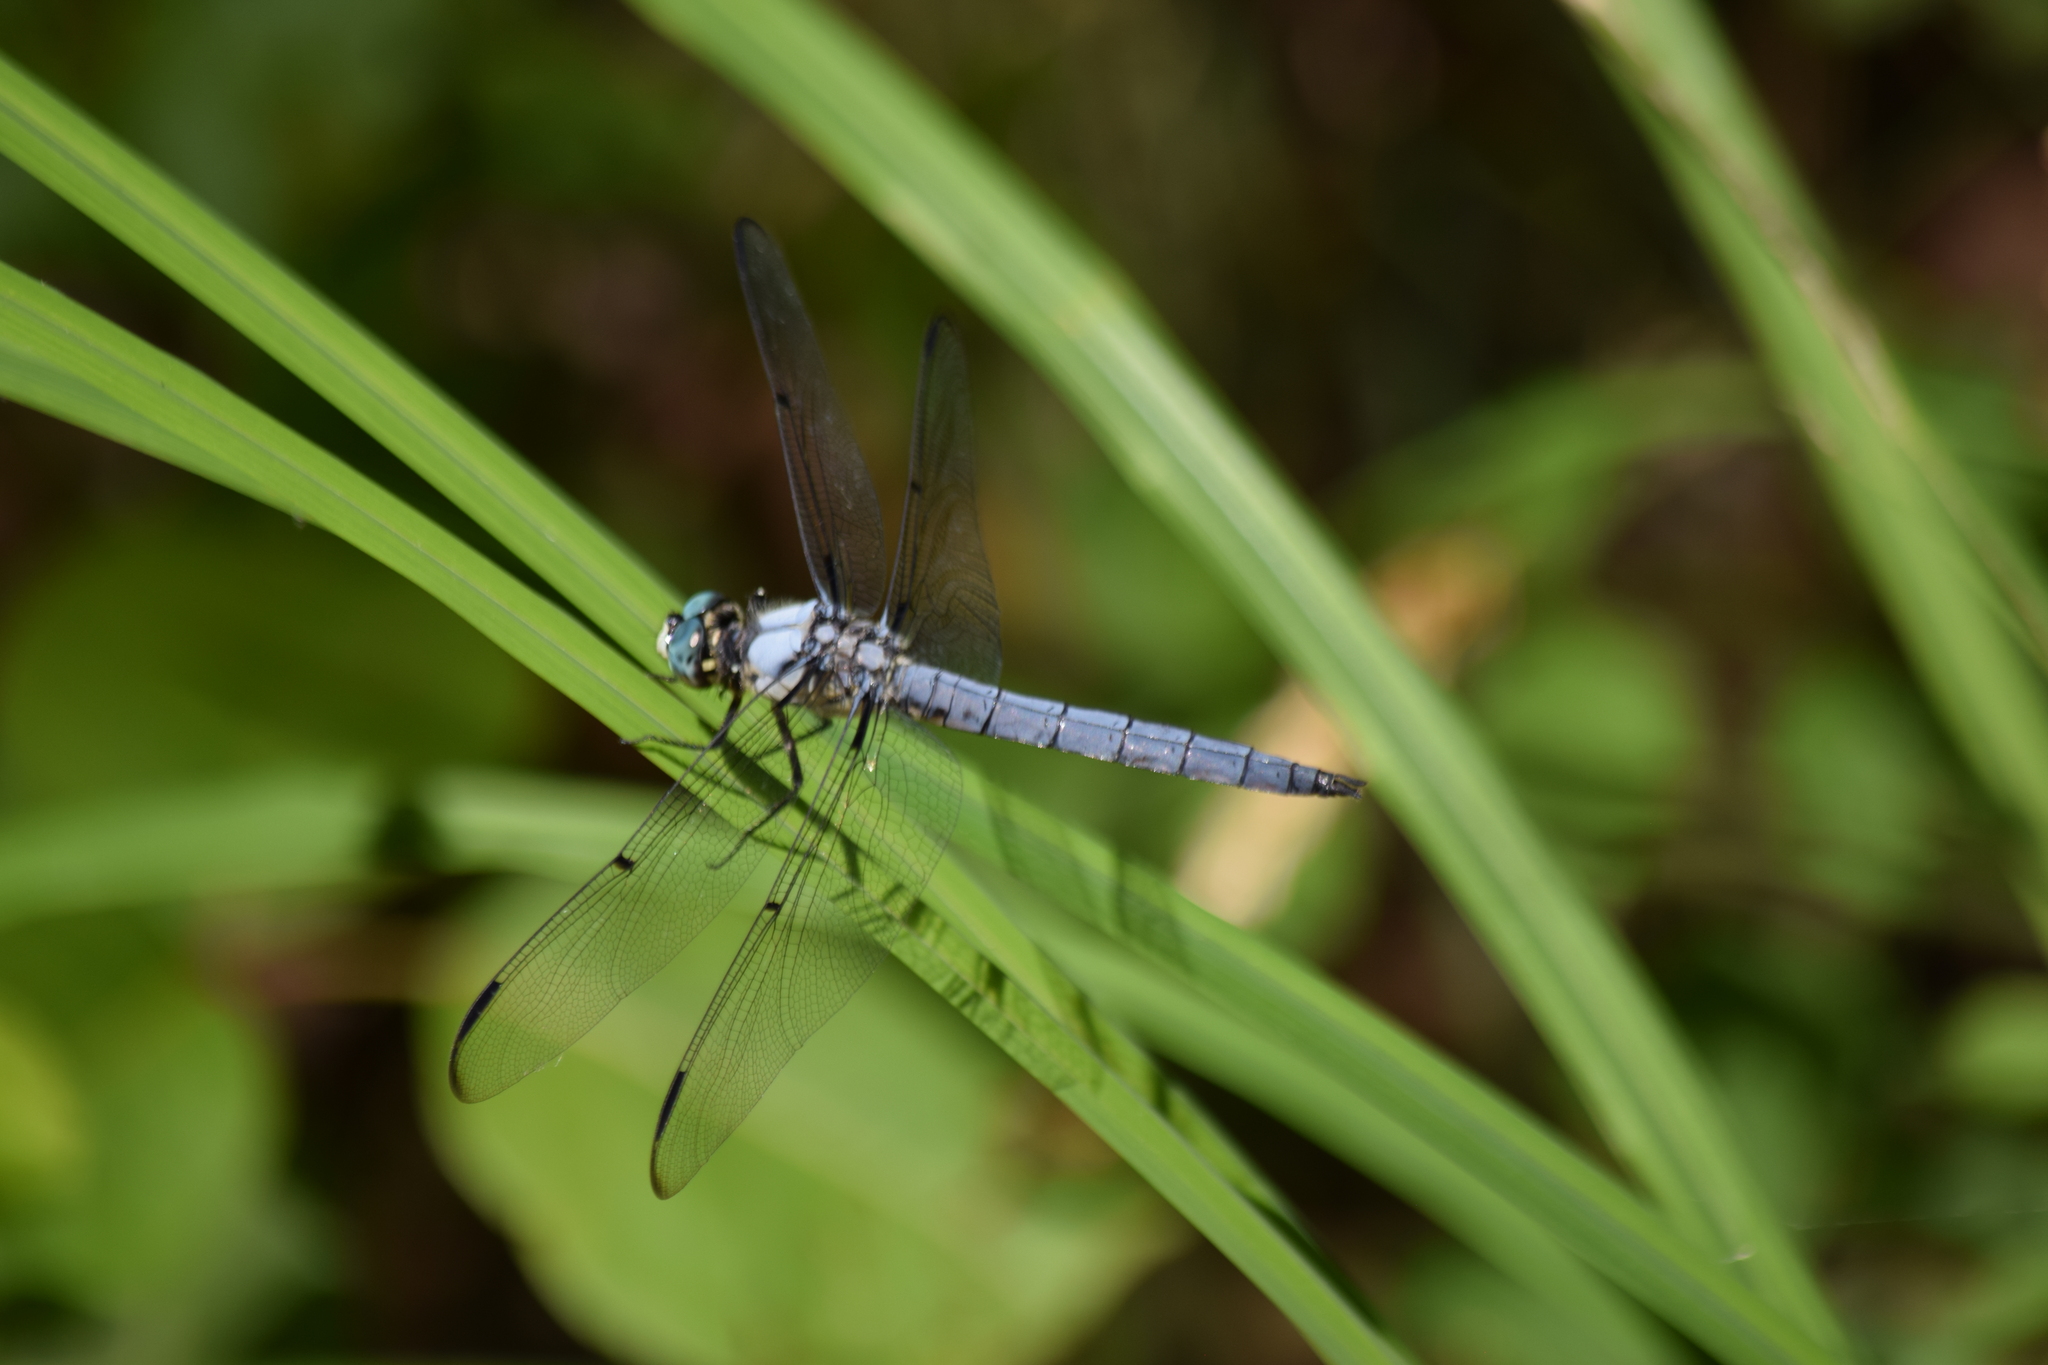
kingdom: Animalia
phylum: Arthropoda
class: Insecta
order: Odonata
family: Libellulidae
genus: Libellula
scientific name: Libellula vibrans
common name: Great blue skimmer
